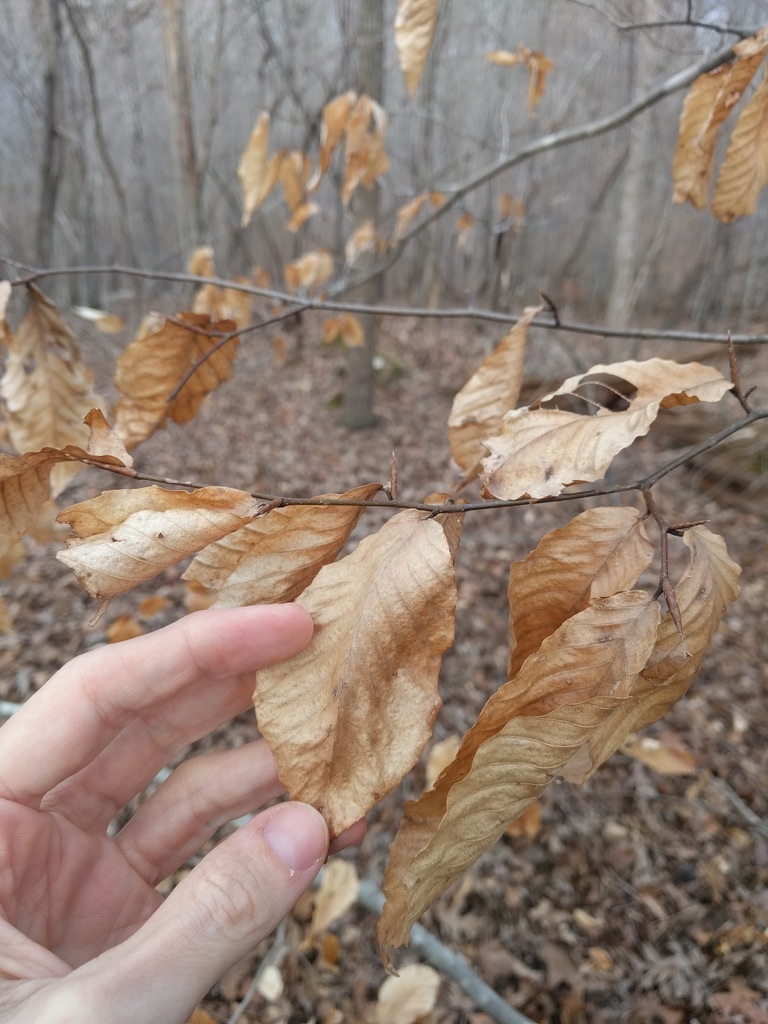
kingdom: Plantae
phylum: Tracheophyta
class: Magnoliopsida
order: Fagales
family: Fagaceae
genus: Fagus
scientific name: Fagus grandifolia
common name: American beech
